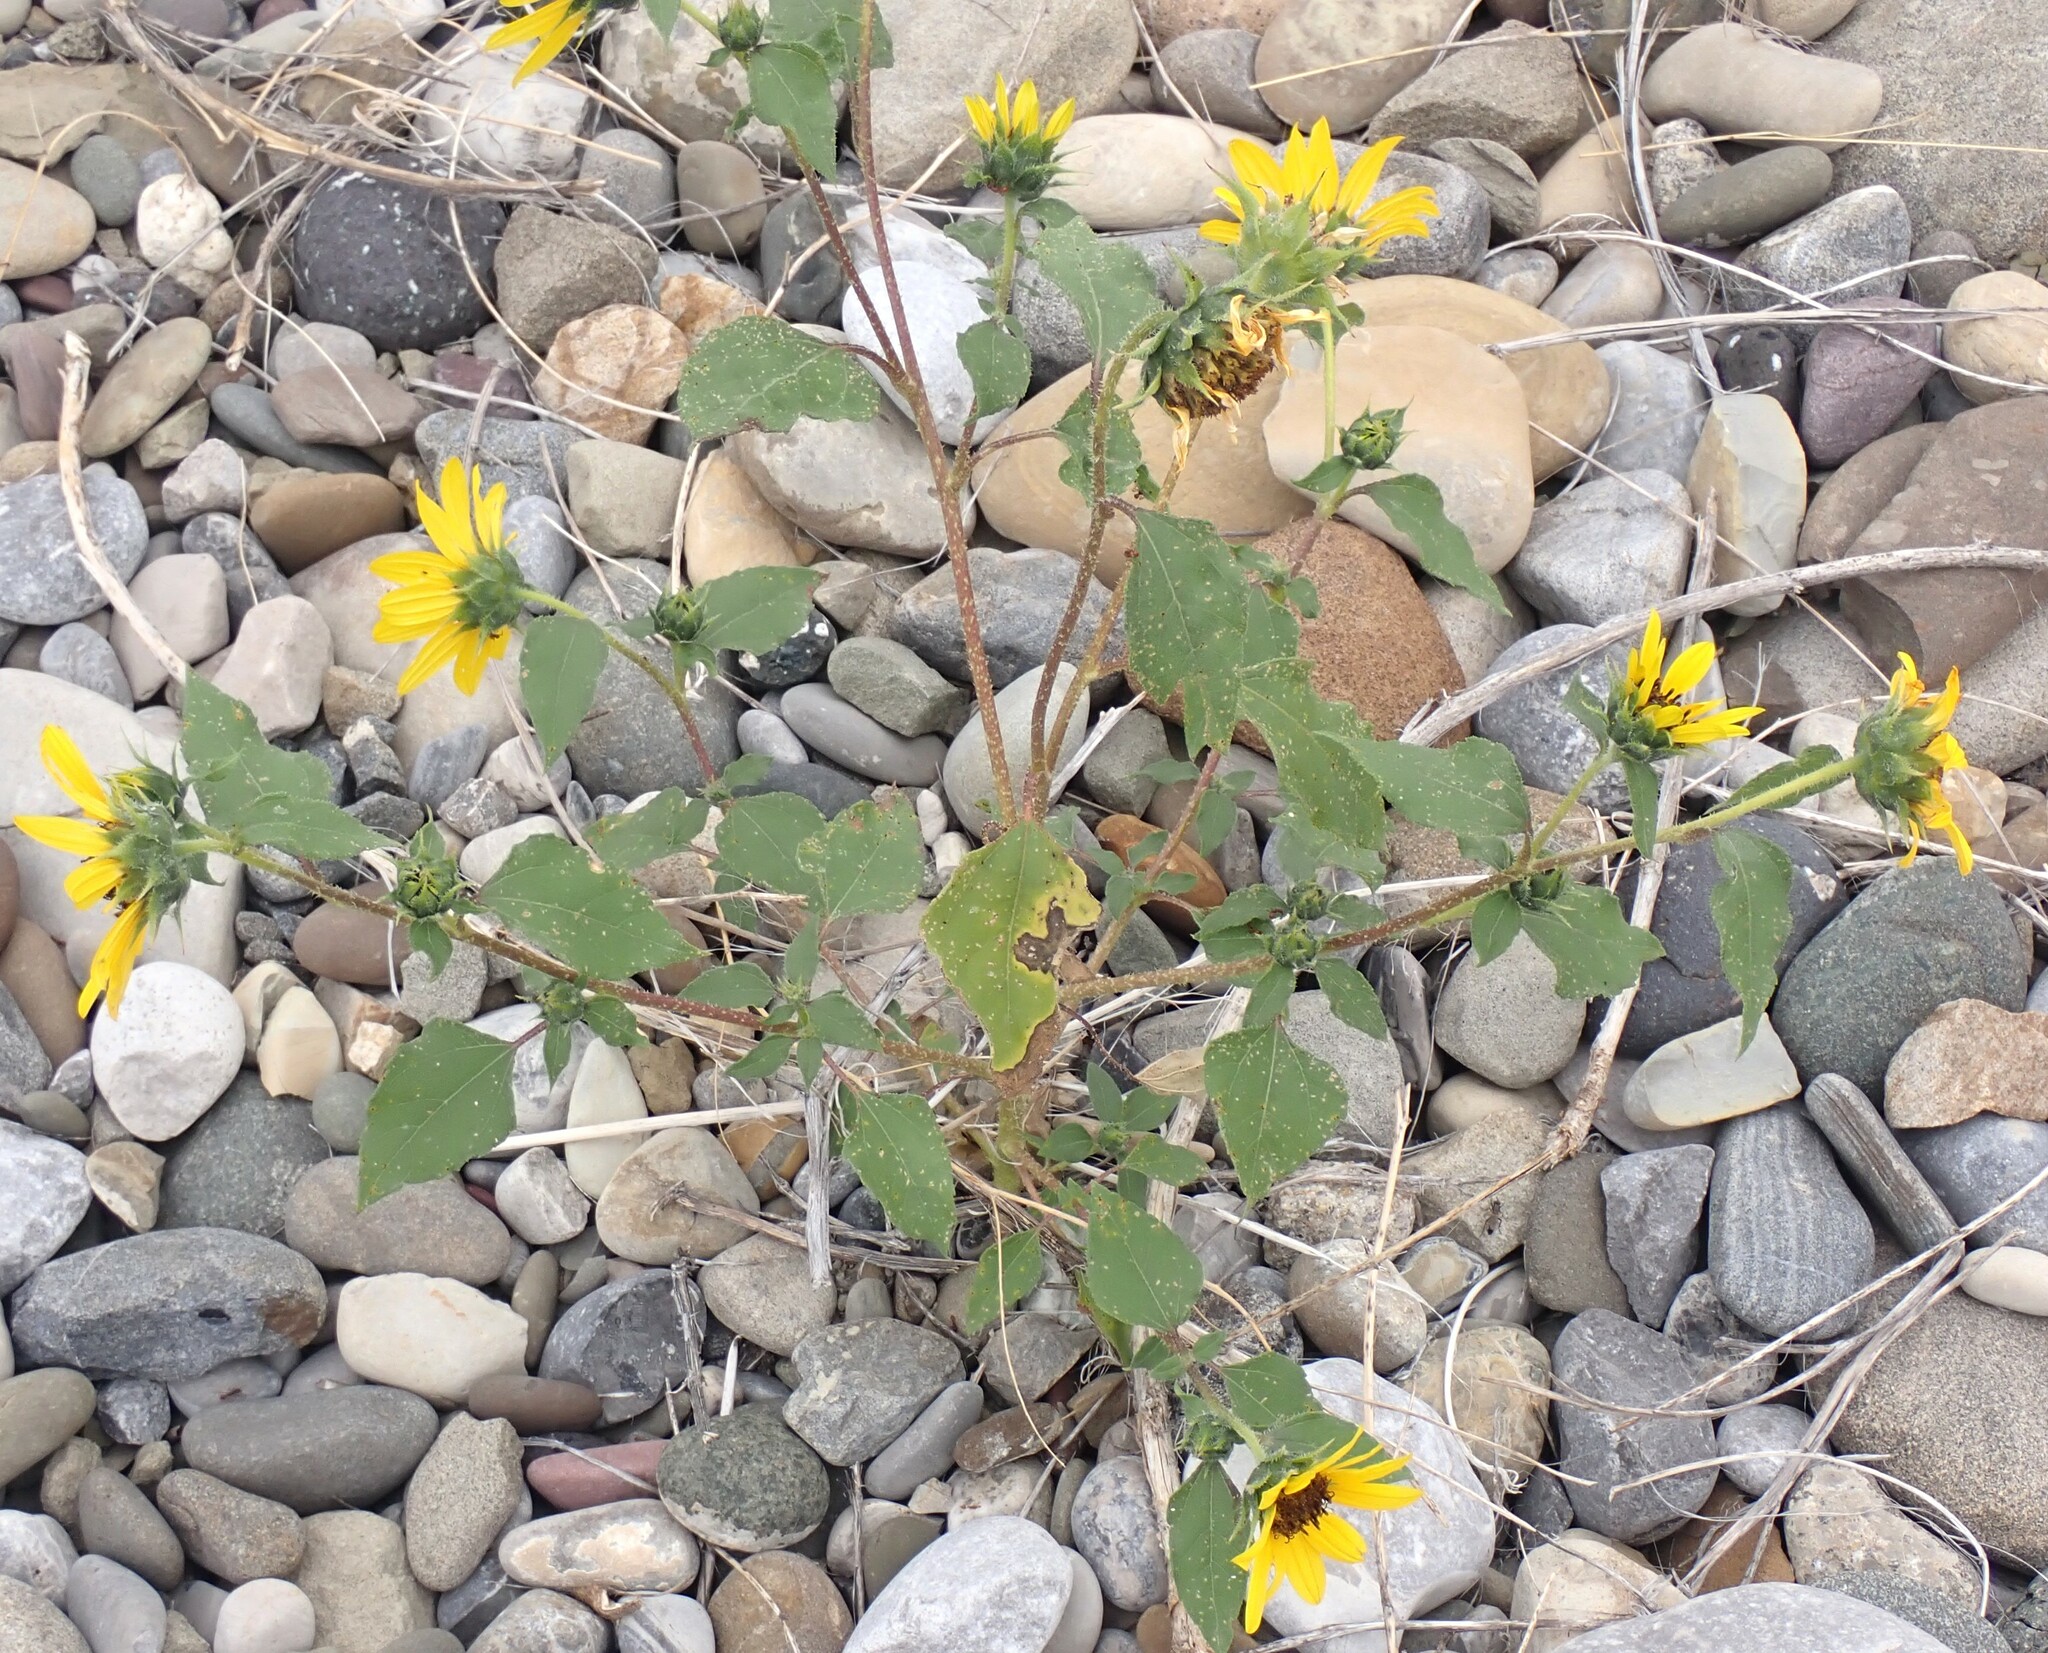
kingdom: Plantae
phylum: Tracheophyta
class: Magnoliopsida
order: Asterales
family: Asteraceae
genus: Helianthus
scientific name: Helianthus annuus
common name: Sunflower
